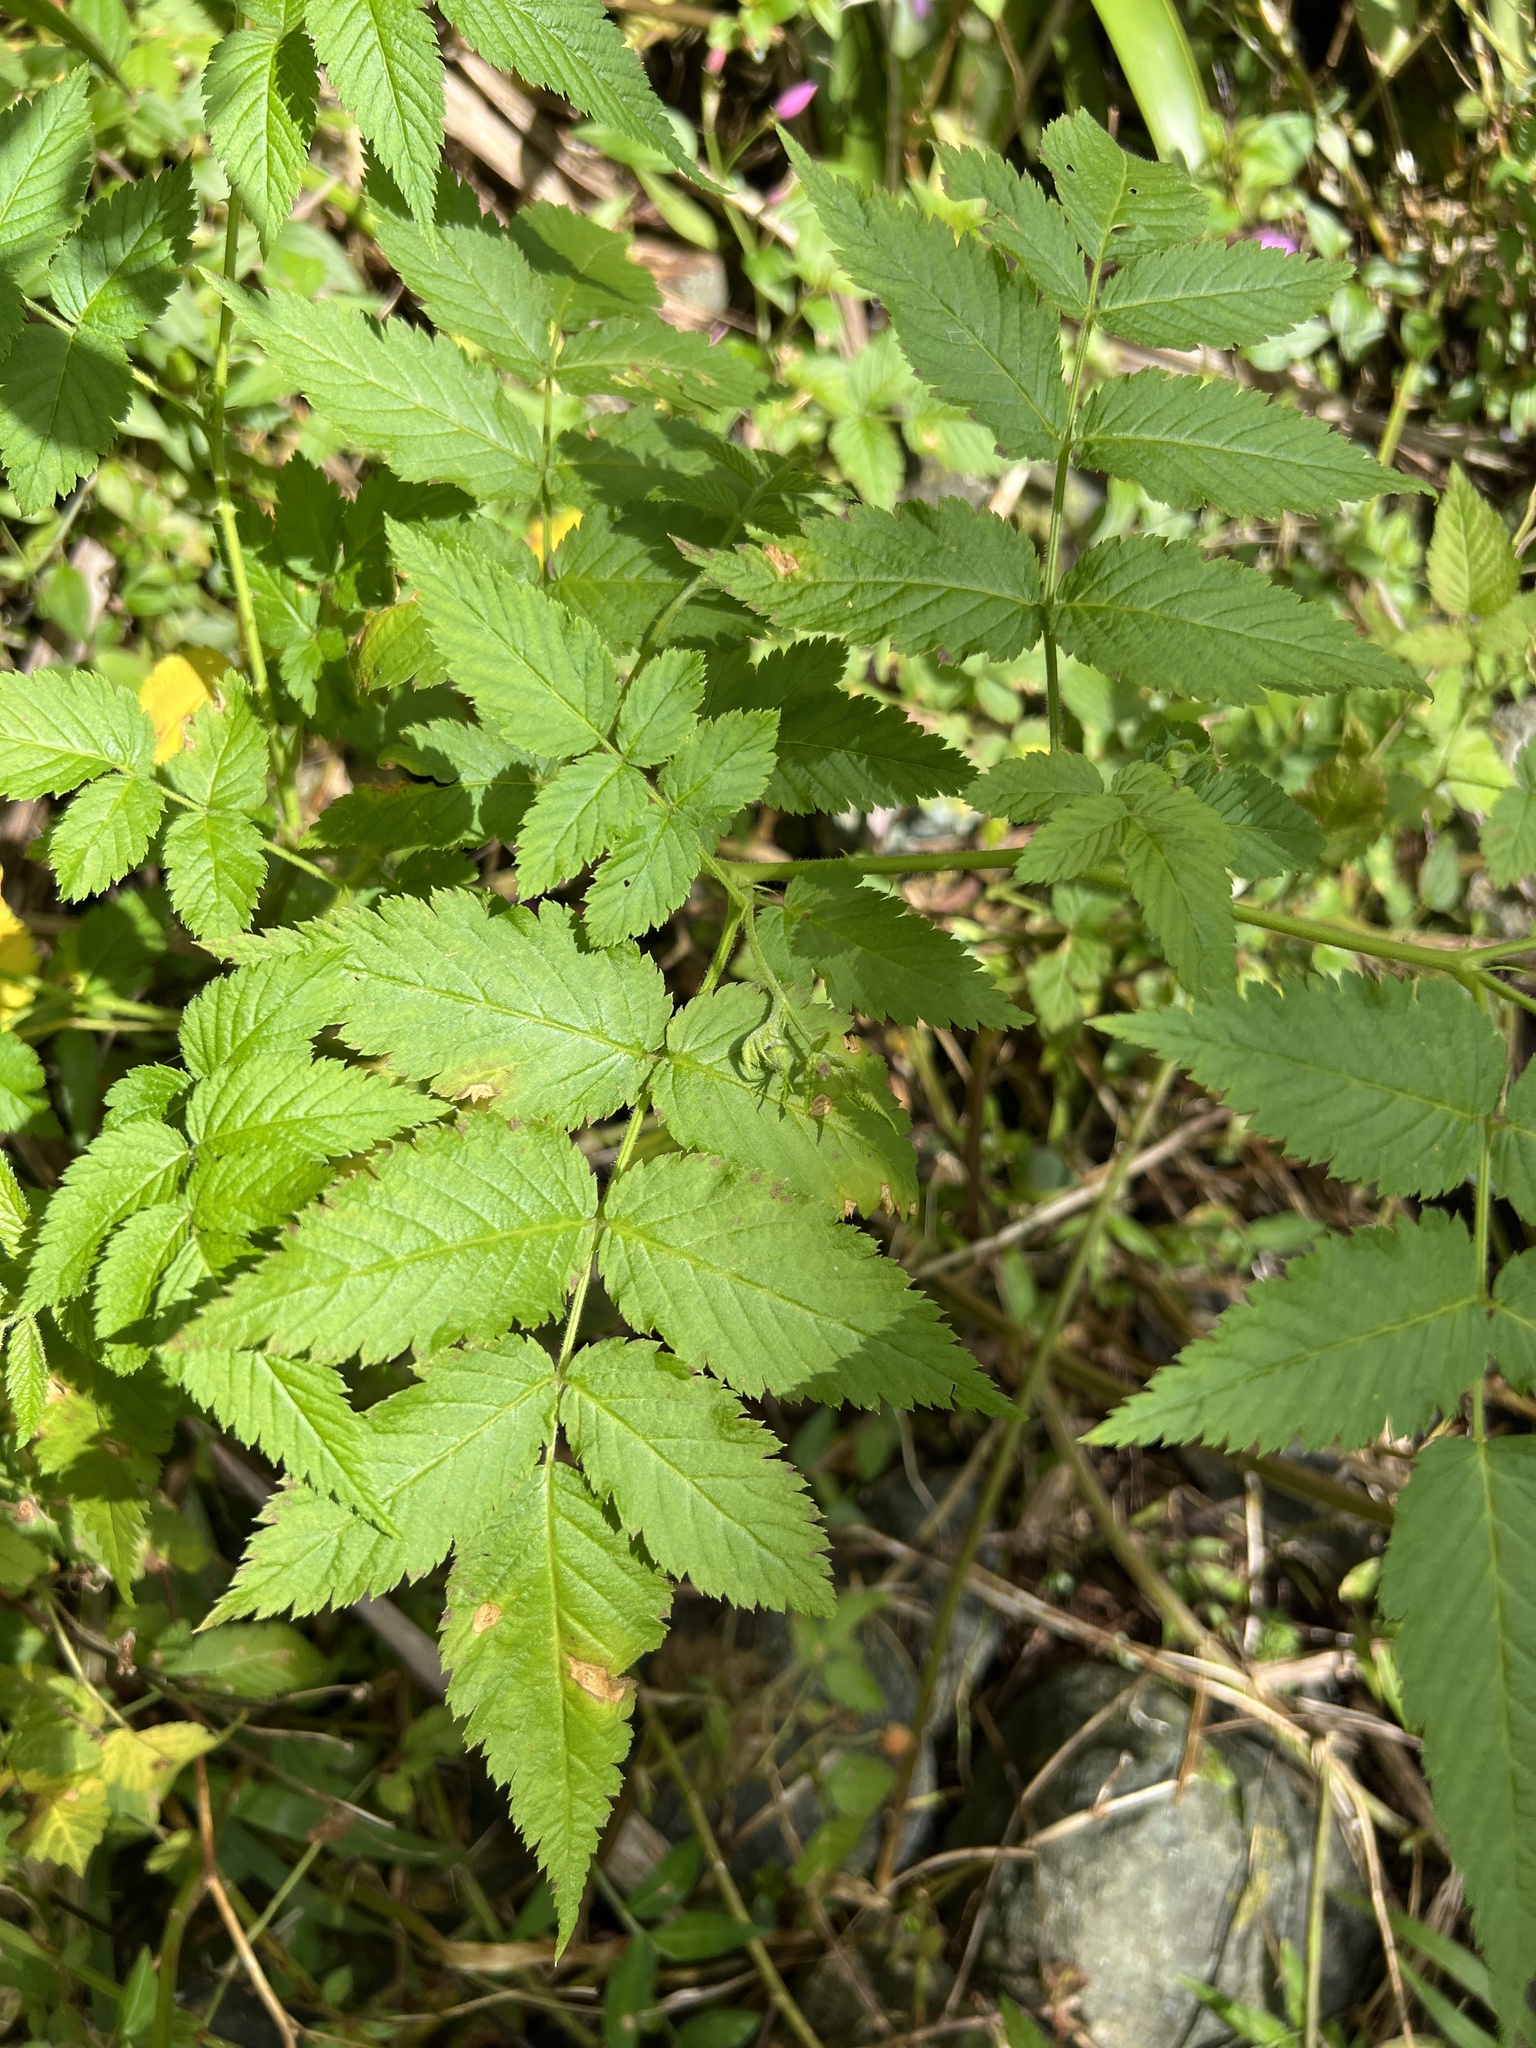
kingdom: Plantae
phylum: Tracheophyta
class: Magnoliopsida
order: Rosales
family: Rosaceae
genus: Rubus
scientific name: Rubus rosifolius
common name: Roseleaf raspberry
